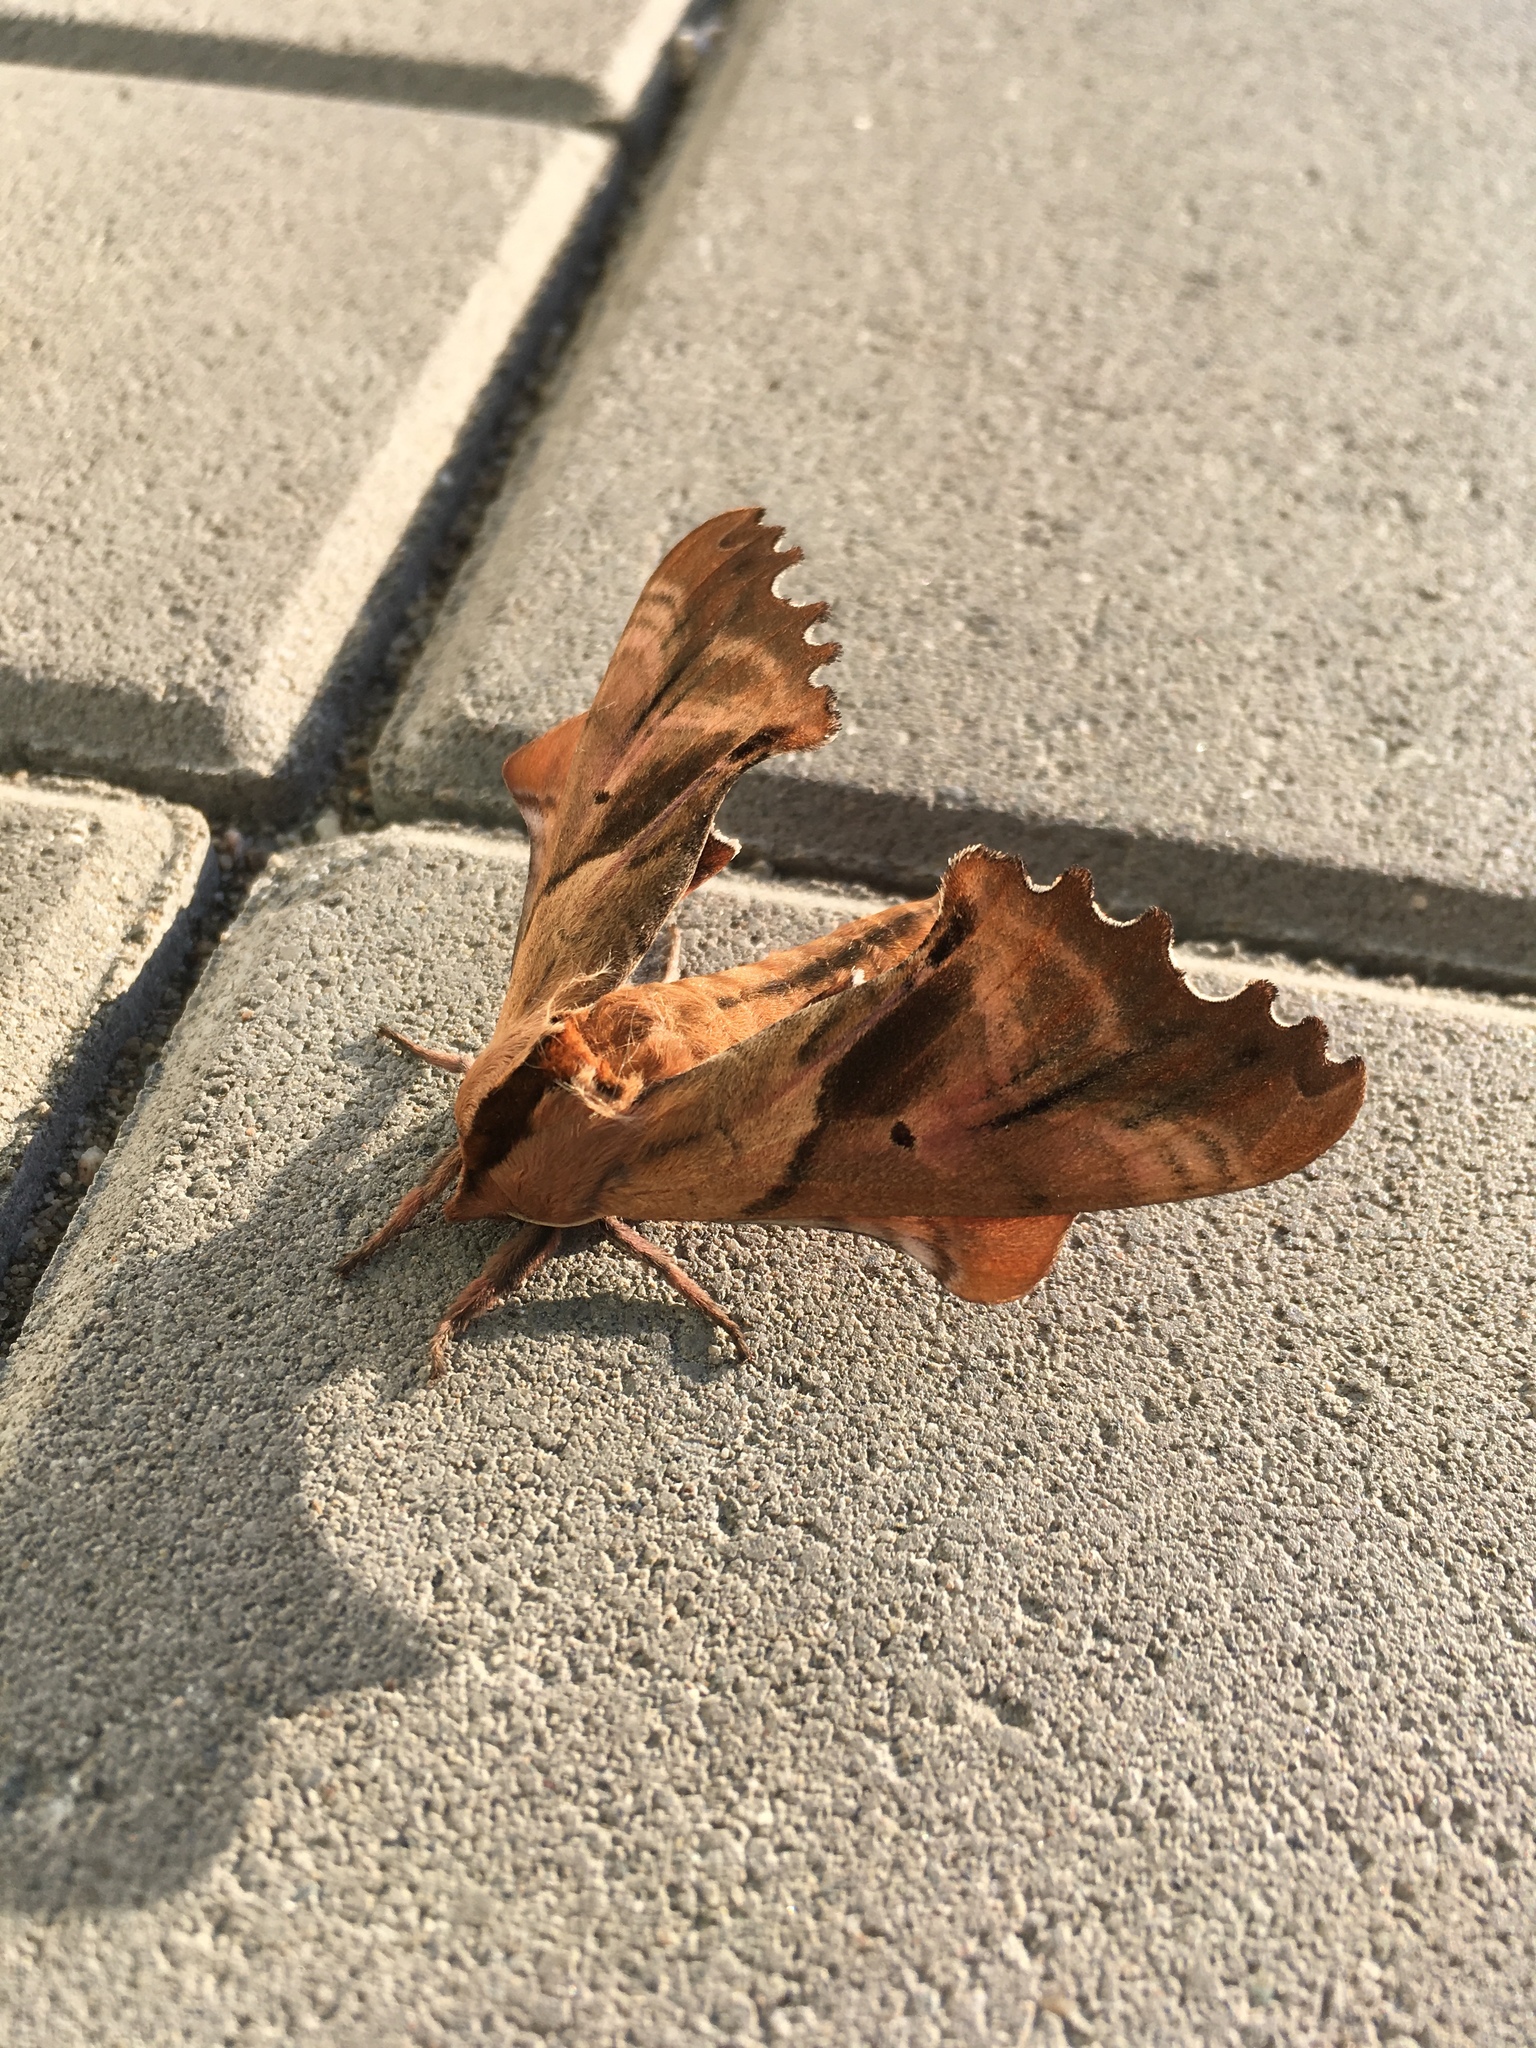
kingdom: Animalia
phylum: Arthropoda
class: Insecta
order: Lepidoptera
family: Sphingidae
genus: Paonias
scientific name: Paonias excaecata
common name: Blind-eyed sphinx
